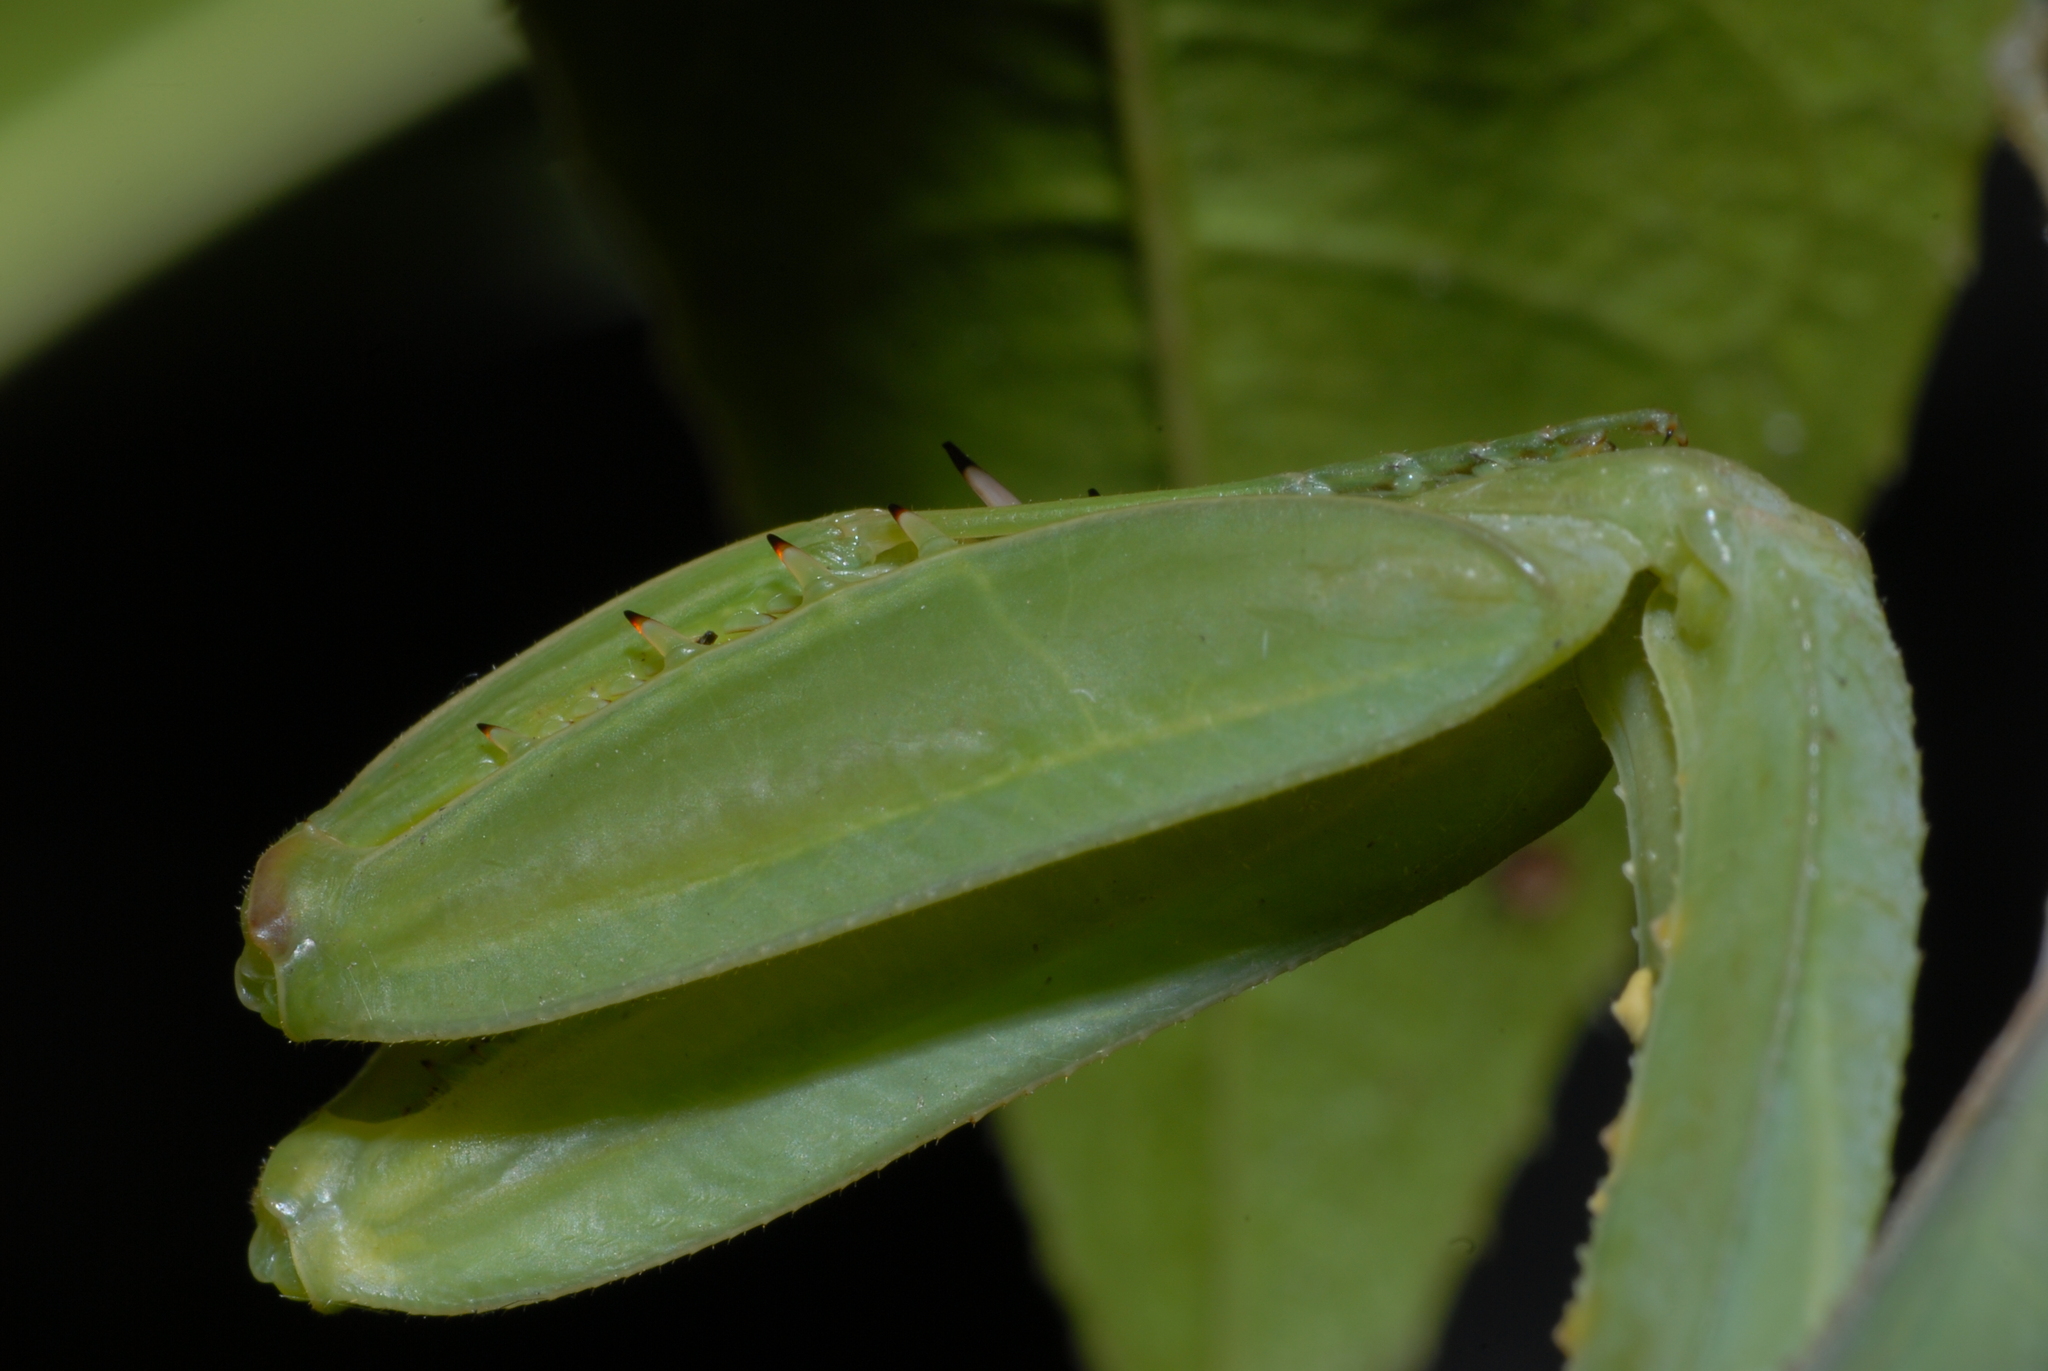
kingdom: Animalia
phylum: Arthropoda
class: Insecta
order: Mantodea
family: Mantidae
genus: Hierodula
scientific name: Hierodula patellifera
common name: Asian mantis
